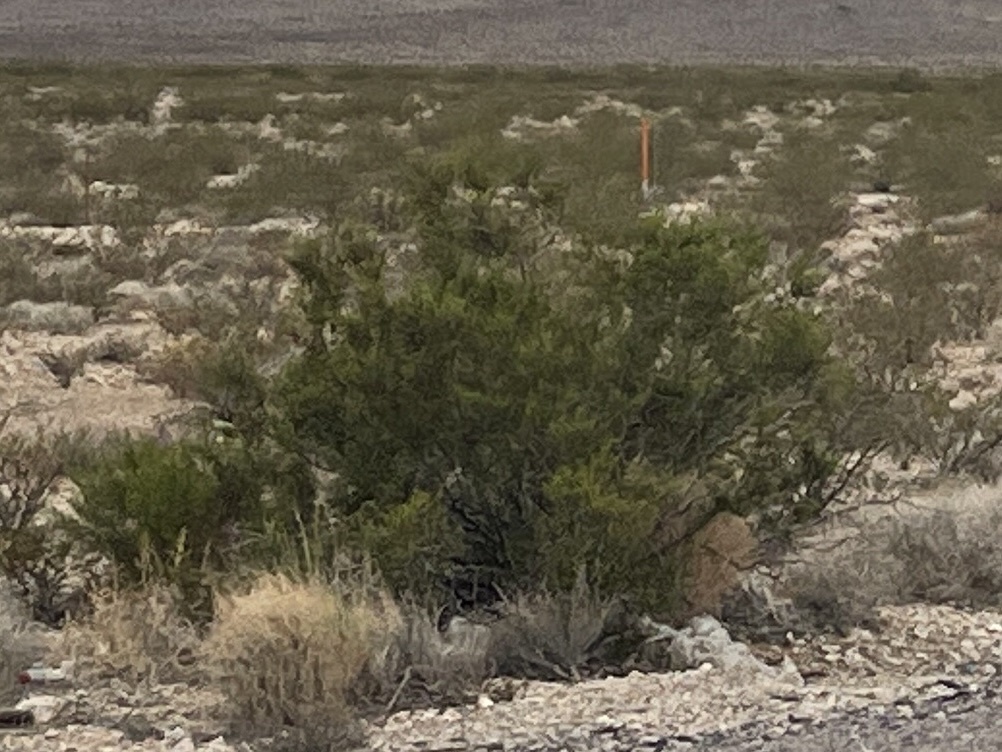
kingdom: Plantae
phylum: Tracheophyta
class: Magnoliopsida
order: Zygophyllales
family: Zygophyllaceae
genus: Larrea
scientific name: Larrea tridentata
